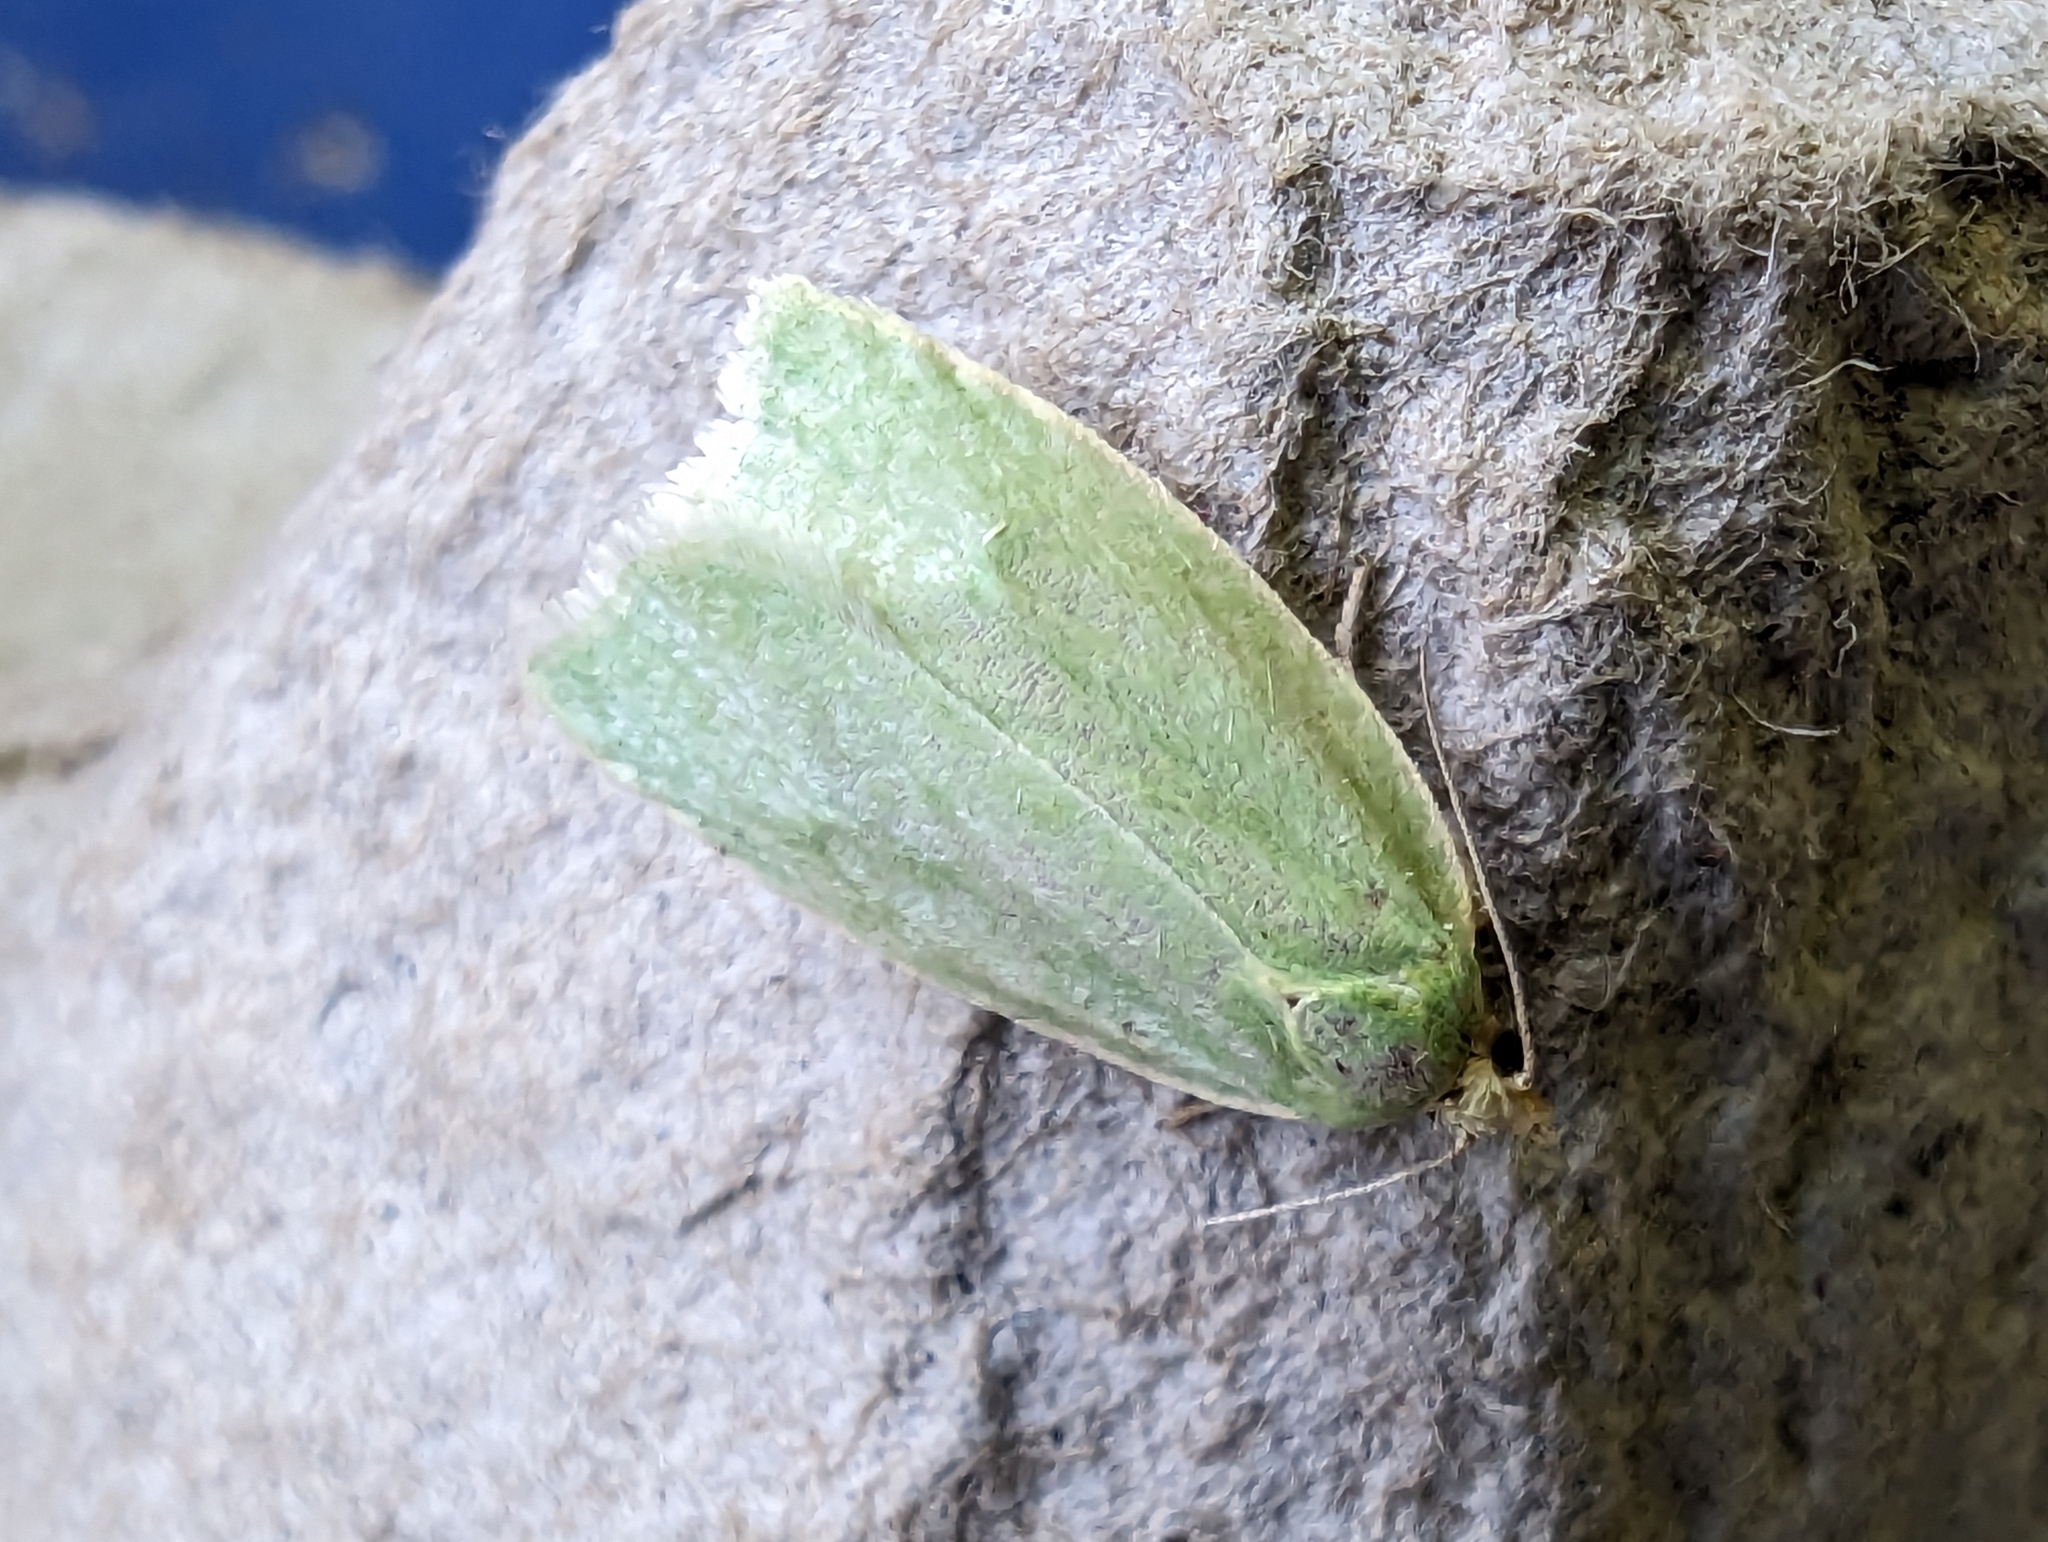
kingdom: Animalia
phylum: Arthropoda
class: Insecta
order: Lepidoptera
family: Tortricidae
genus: Tortrix
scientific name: Tortrix viridana
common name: Green oak tortrix
